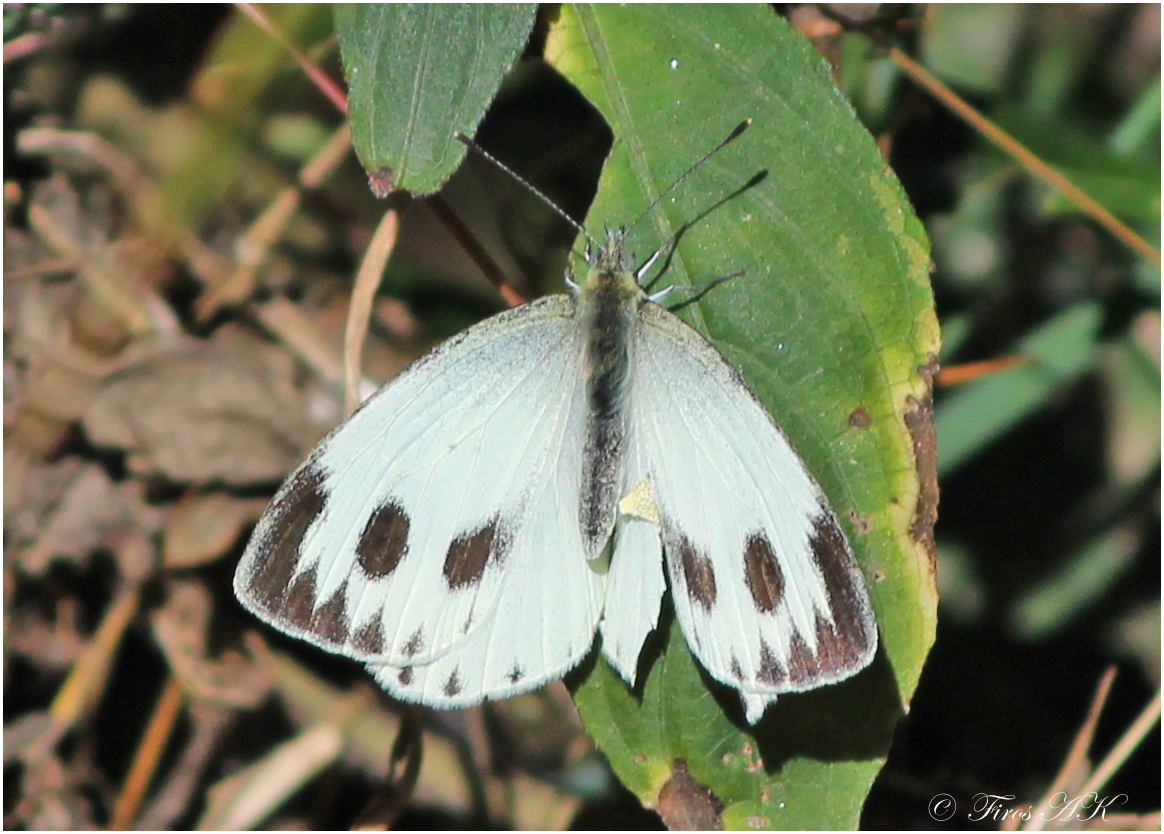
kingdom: Animalia
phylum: Arthropoda
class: Insecta
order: Lepidoptera
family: Pieridae
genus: Pieris
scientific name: Pieris canidia
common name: Indian cabbage white
